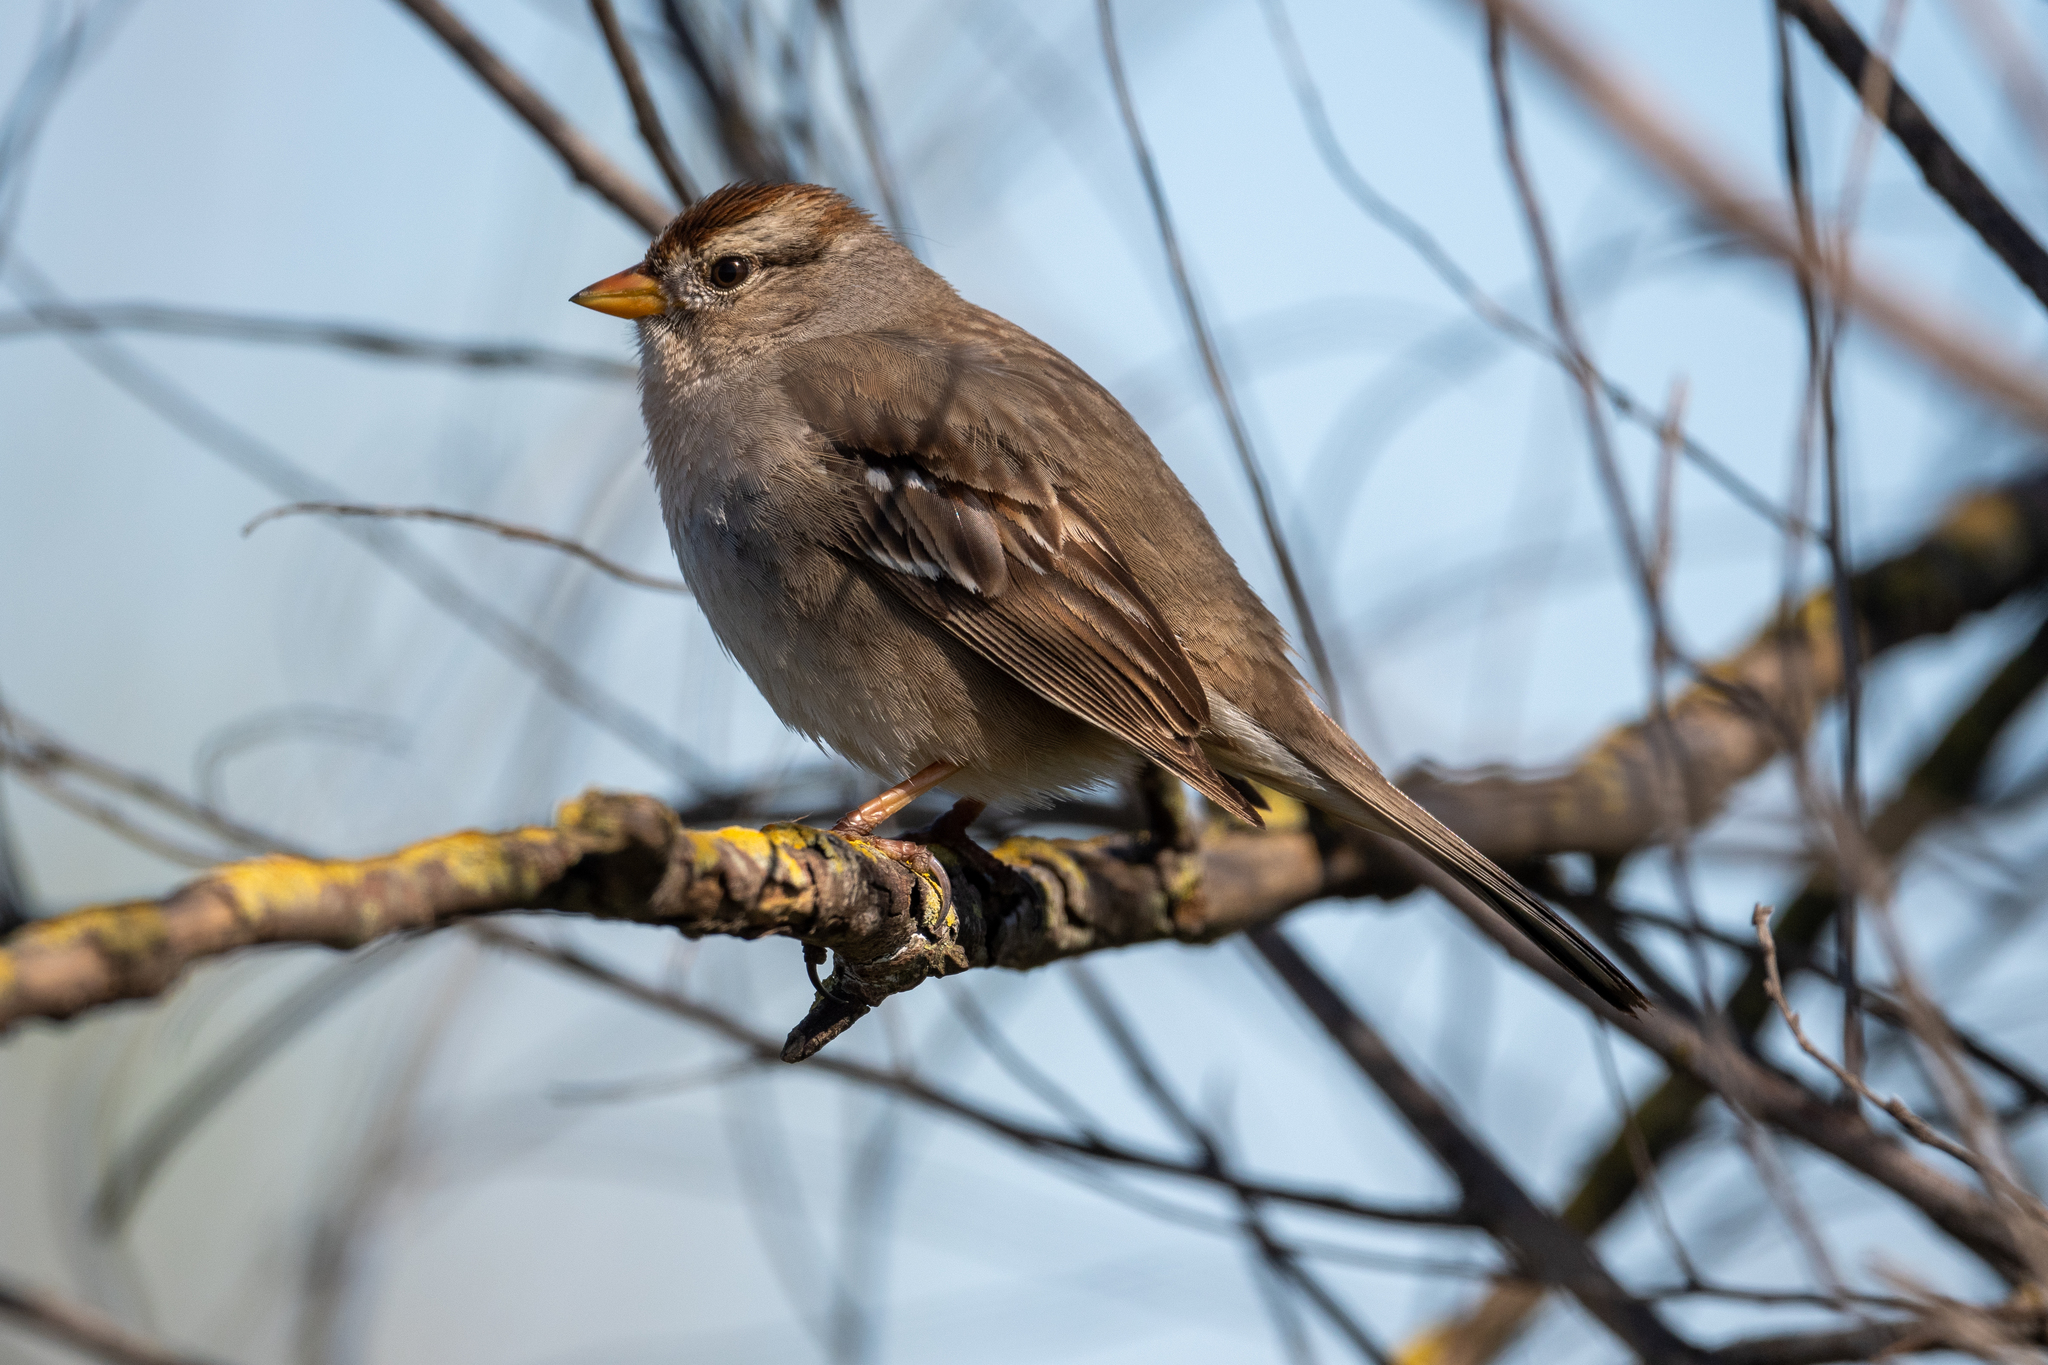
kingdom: Animalia
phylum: Chordata
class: Aves
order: Passeriformes
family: Passerellidae
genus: Zonotrichia
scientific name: Zonotrichia leucophrys
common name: White-crowned sparrow
